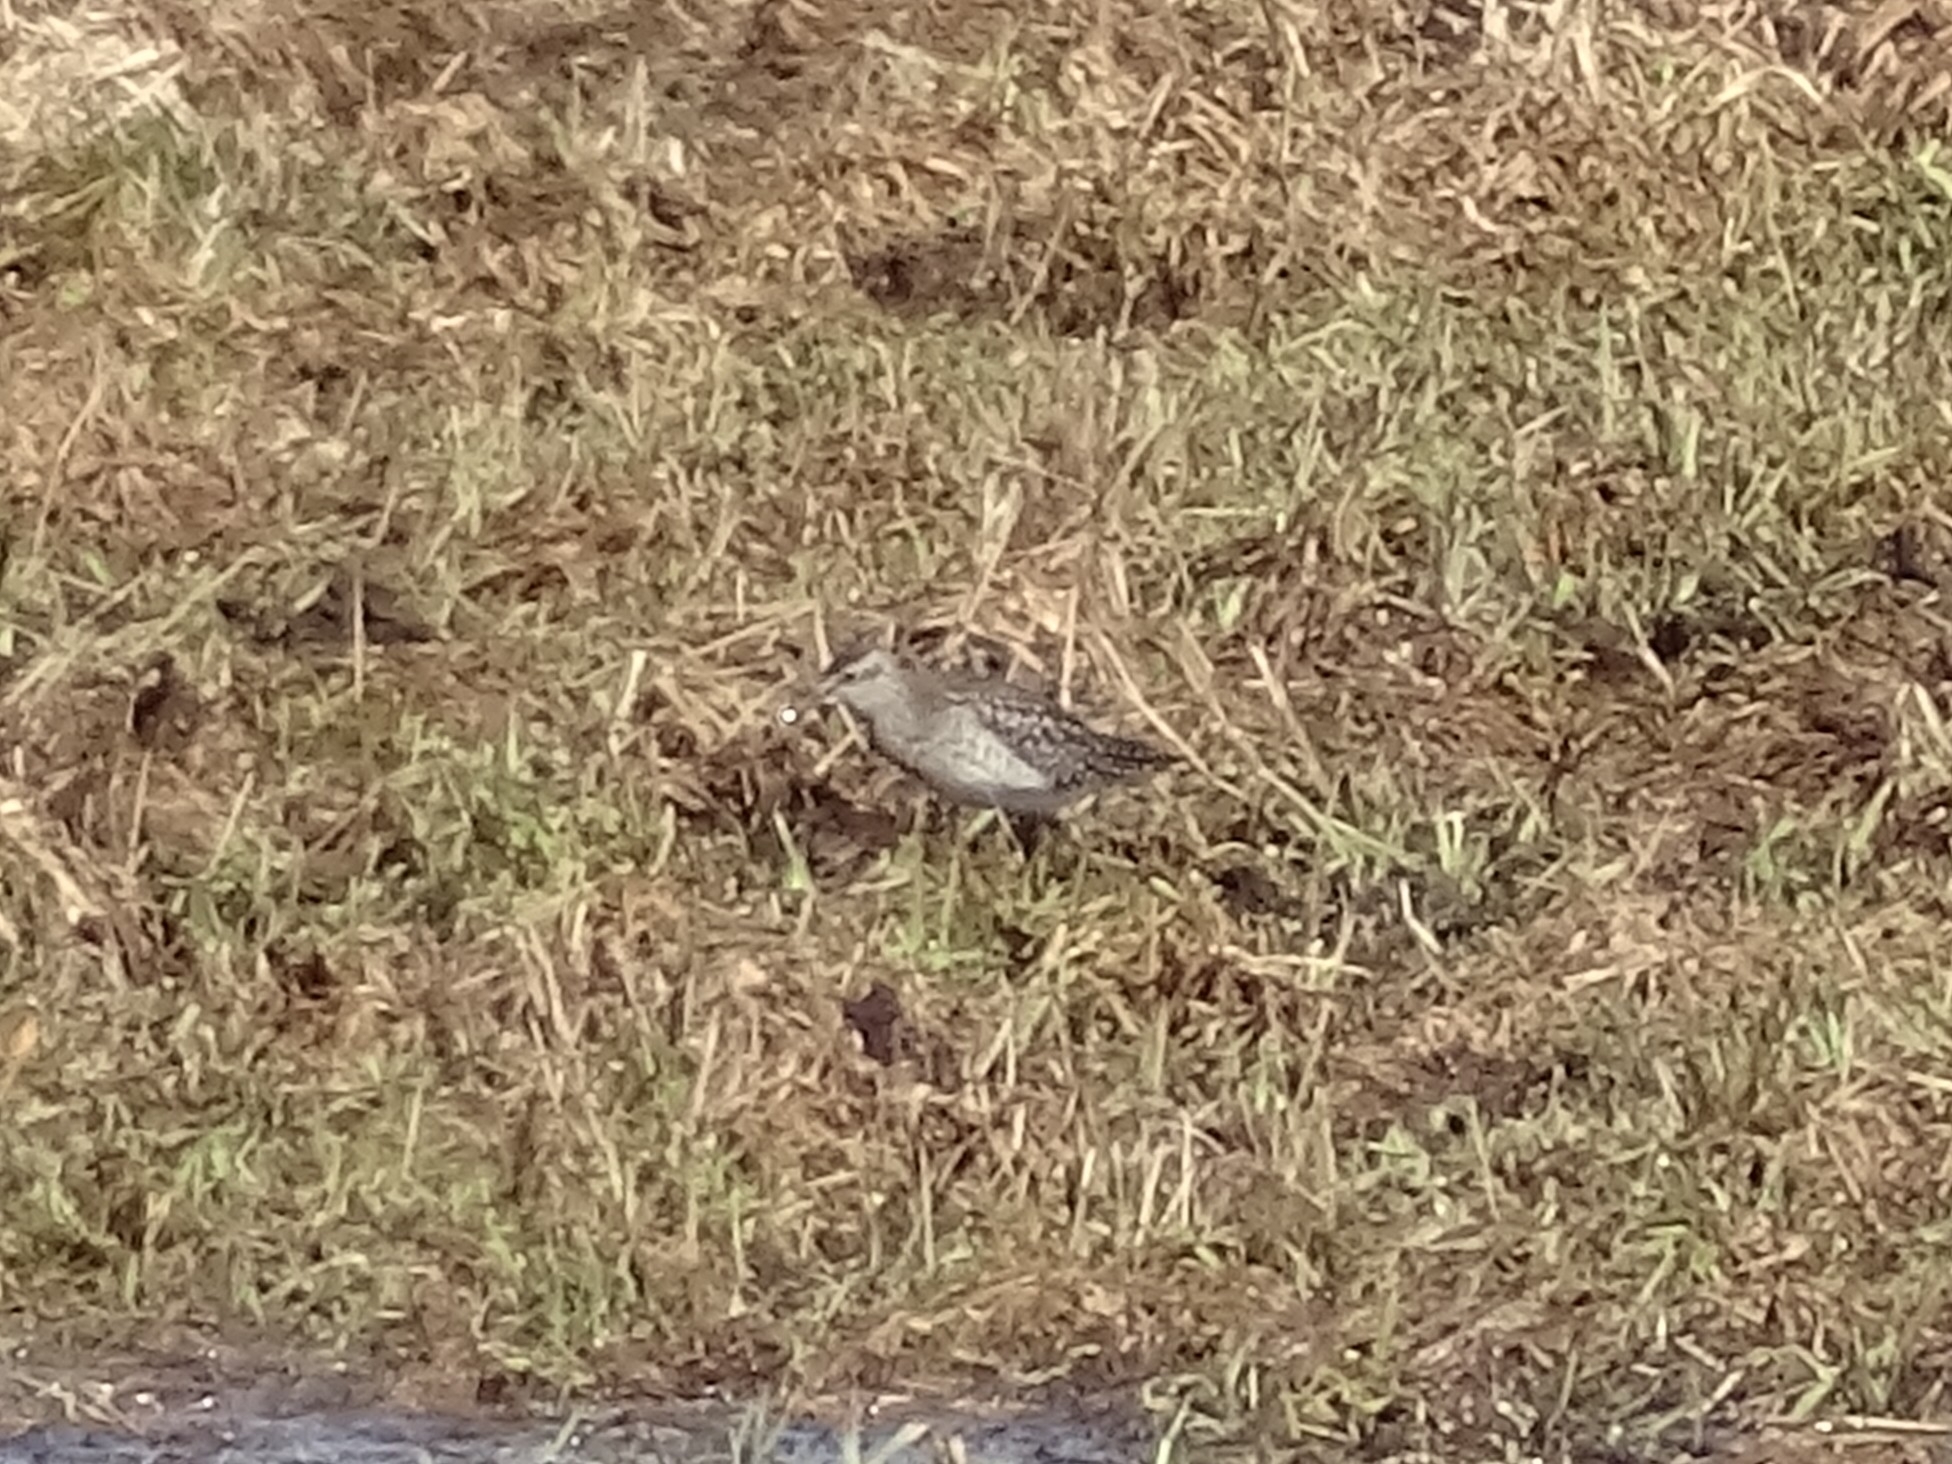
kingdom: Animalia
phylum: Chordata
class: Aves
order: Charadriiformes
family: Scolopacidae
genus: Tringa
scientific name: Tringa glareola
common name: Wood sandpiper
